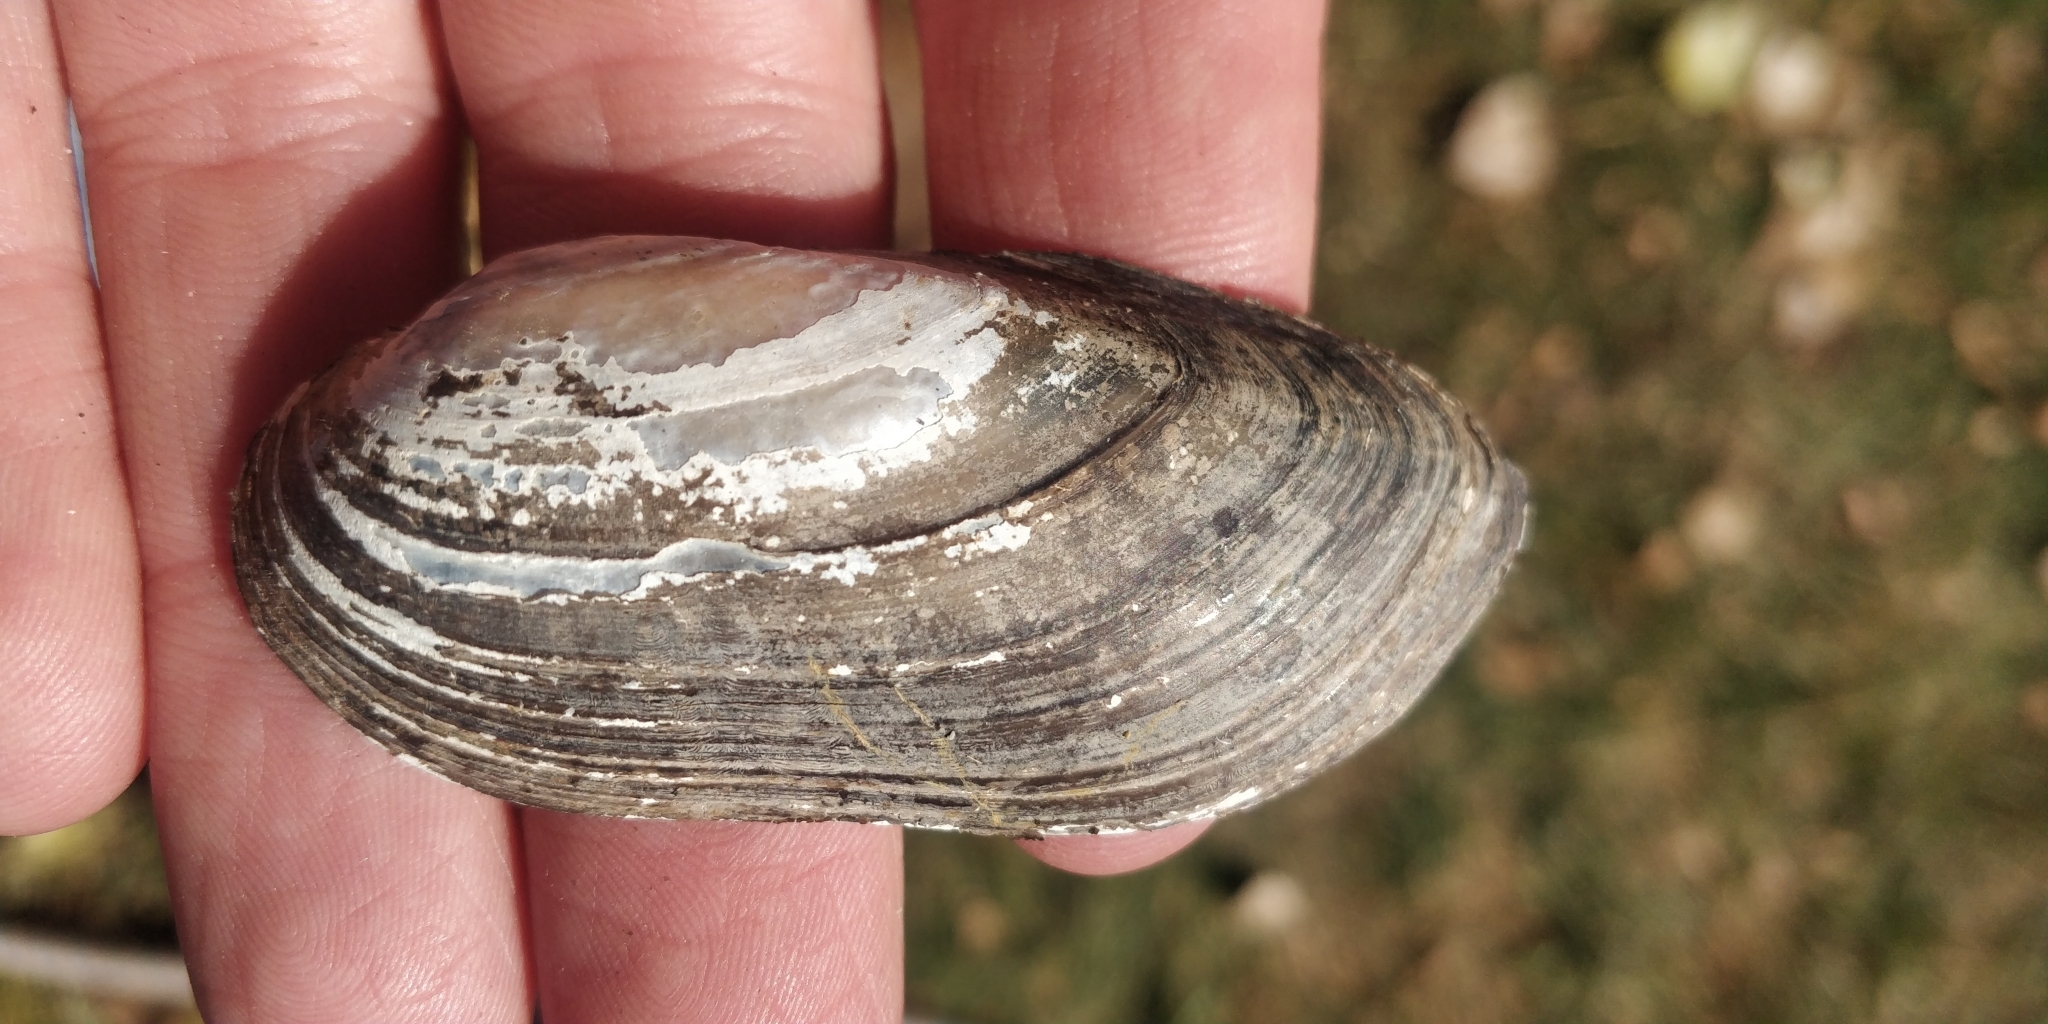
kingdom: Animalia
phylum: Mollusca
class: Bivalvia
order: Unionida
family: Unionidae
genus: Lampsilis
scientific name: Lampsilis teres
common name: Yellow sandshell
